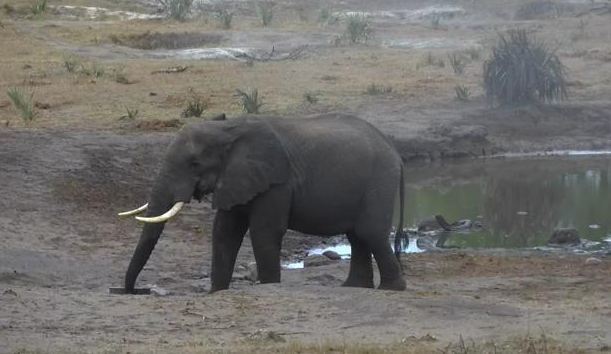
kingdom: Animalia
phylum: Chordata
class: Mammalia
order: Proboscidea
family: Elephantidae
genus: Loxodonta
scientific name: Loxodonta africana
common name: African elephant
